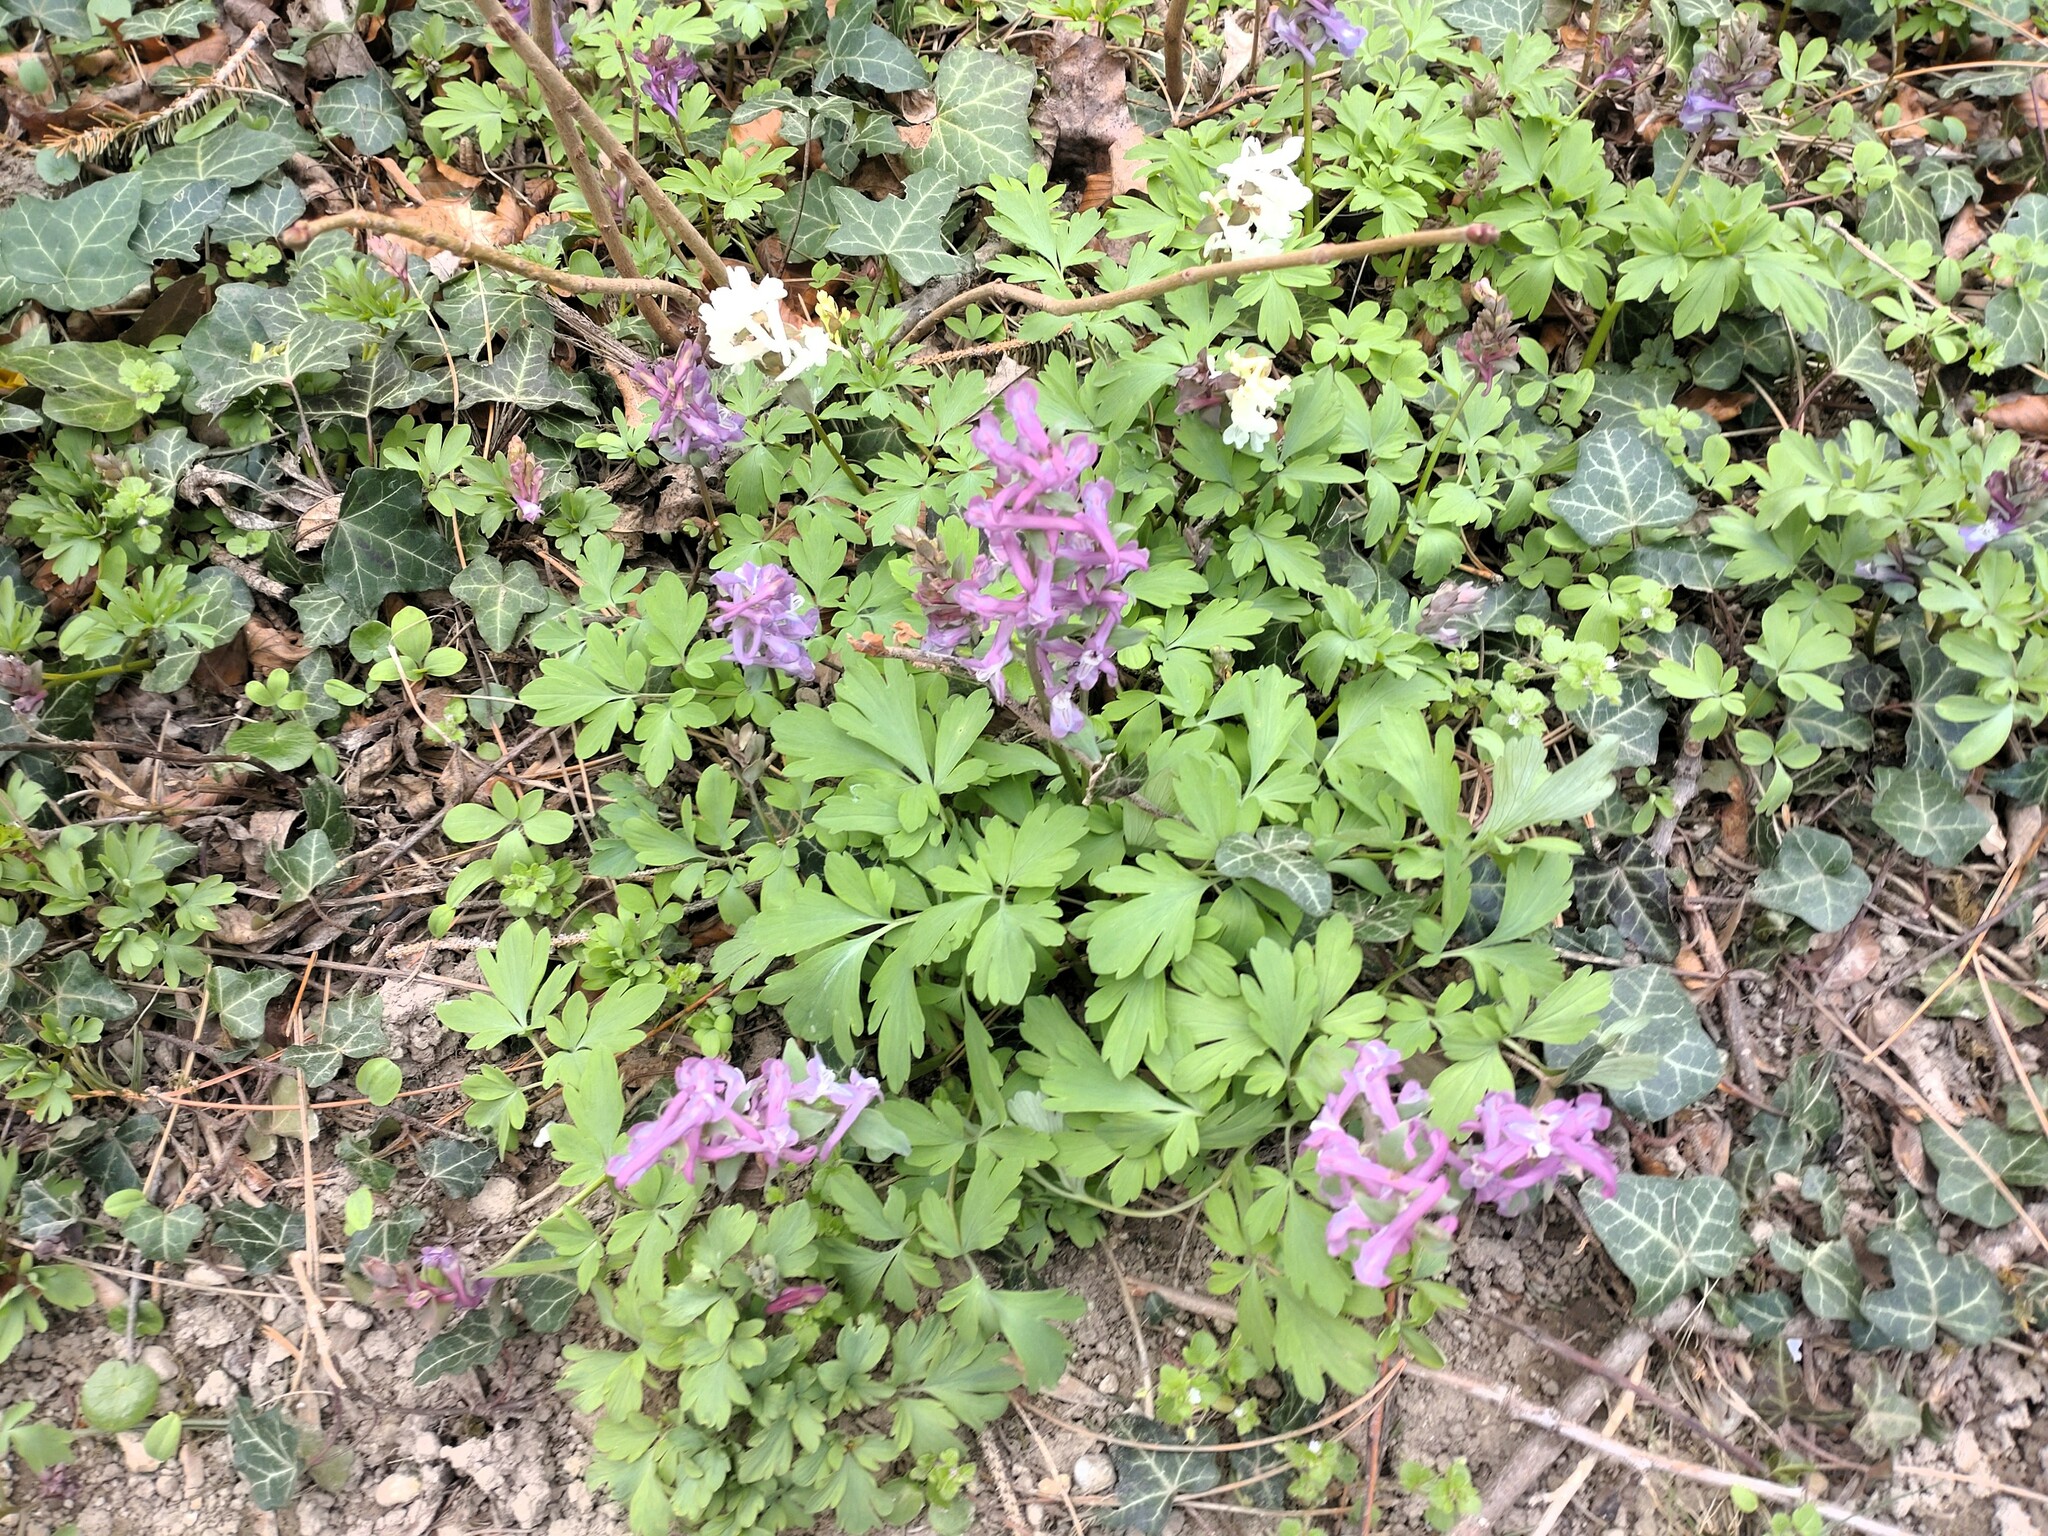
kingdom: Plantae
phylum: Tracheophyta
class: Magnoliopsida
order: Ranunculales
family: Papaveraceae
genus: Corydalis
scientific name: Corydalis cava
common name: Hollowroot
